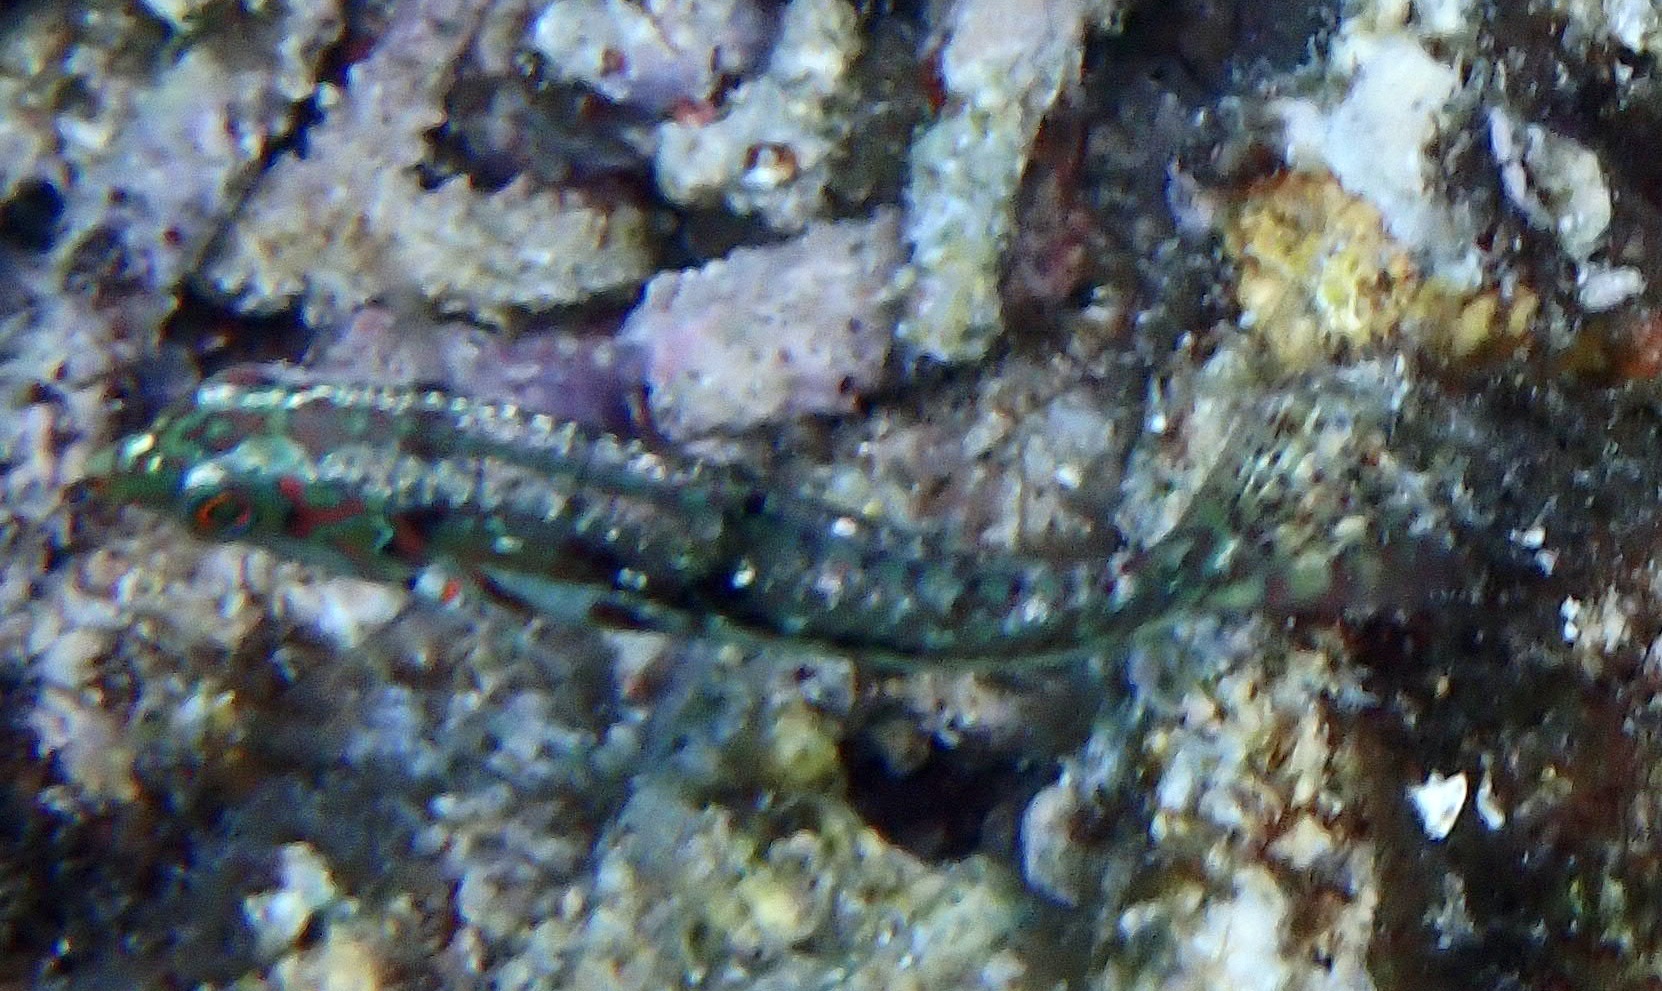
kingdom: Animalia
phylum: Chordata
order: Perciformes
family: Labridae
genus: Halichoeres
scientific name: Halichoeres nebulosus
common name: Clouded wrasse
